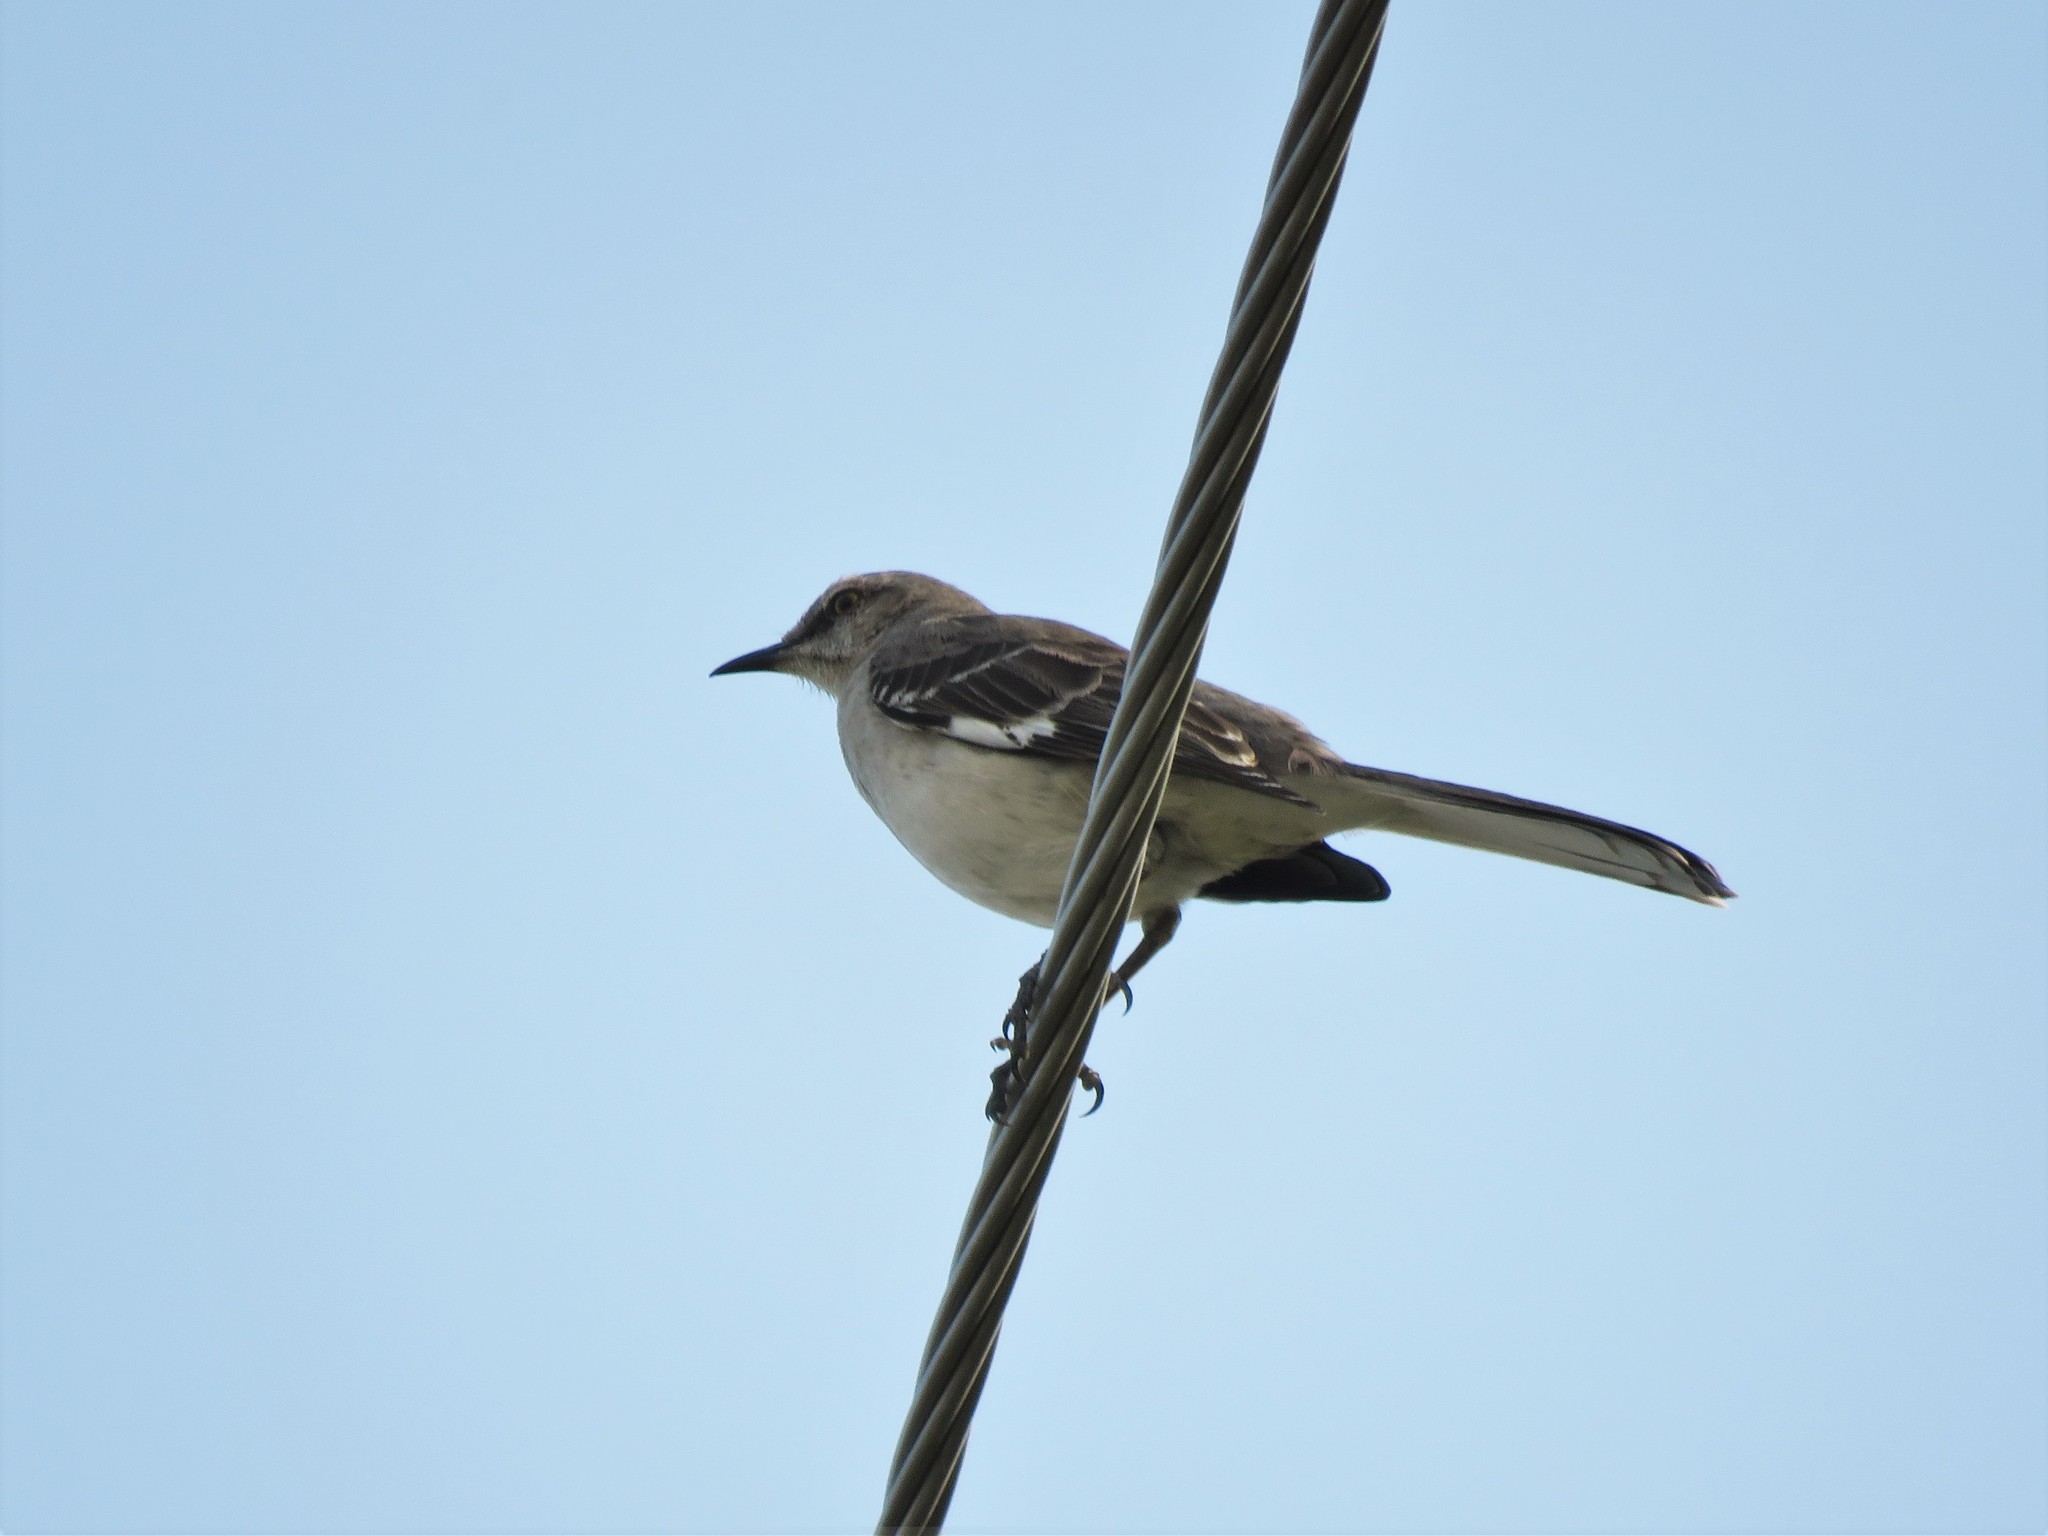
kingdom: Animalia
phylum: Chordata
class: Aves
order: Passeriformes
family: Mimidae
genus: Mimus
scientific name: Mimus polyglottos
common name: Northern mockingbird
